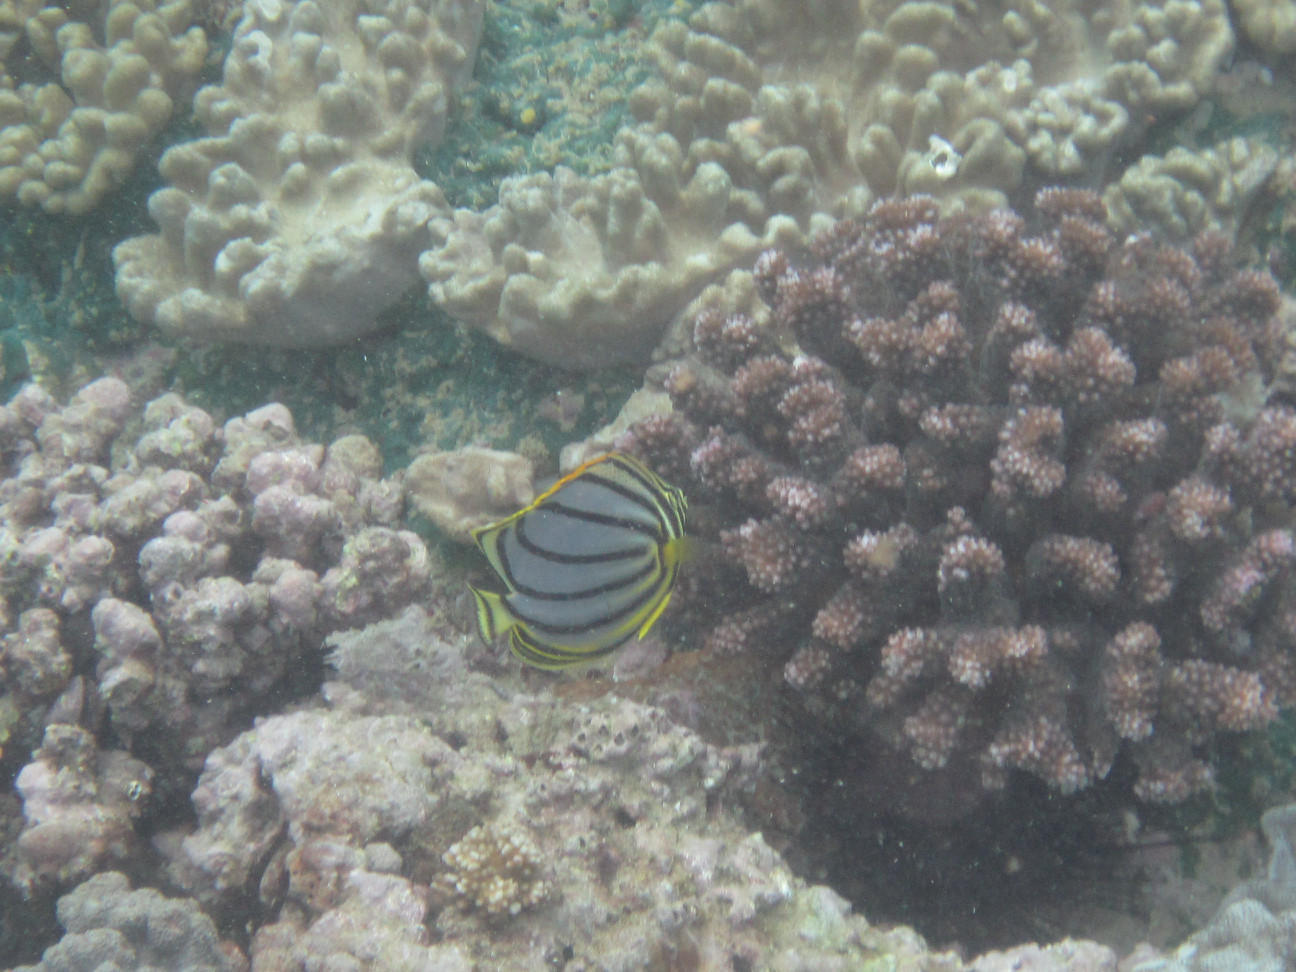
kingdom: Animalia
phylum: Chordata
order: Perciformes
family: Chaetodontidae
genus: Chaetodon
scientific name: Chaetodon meyeri
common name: Meyer's butterflyfish
